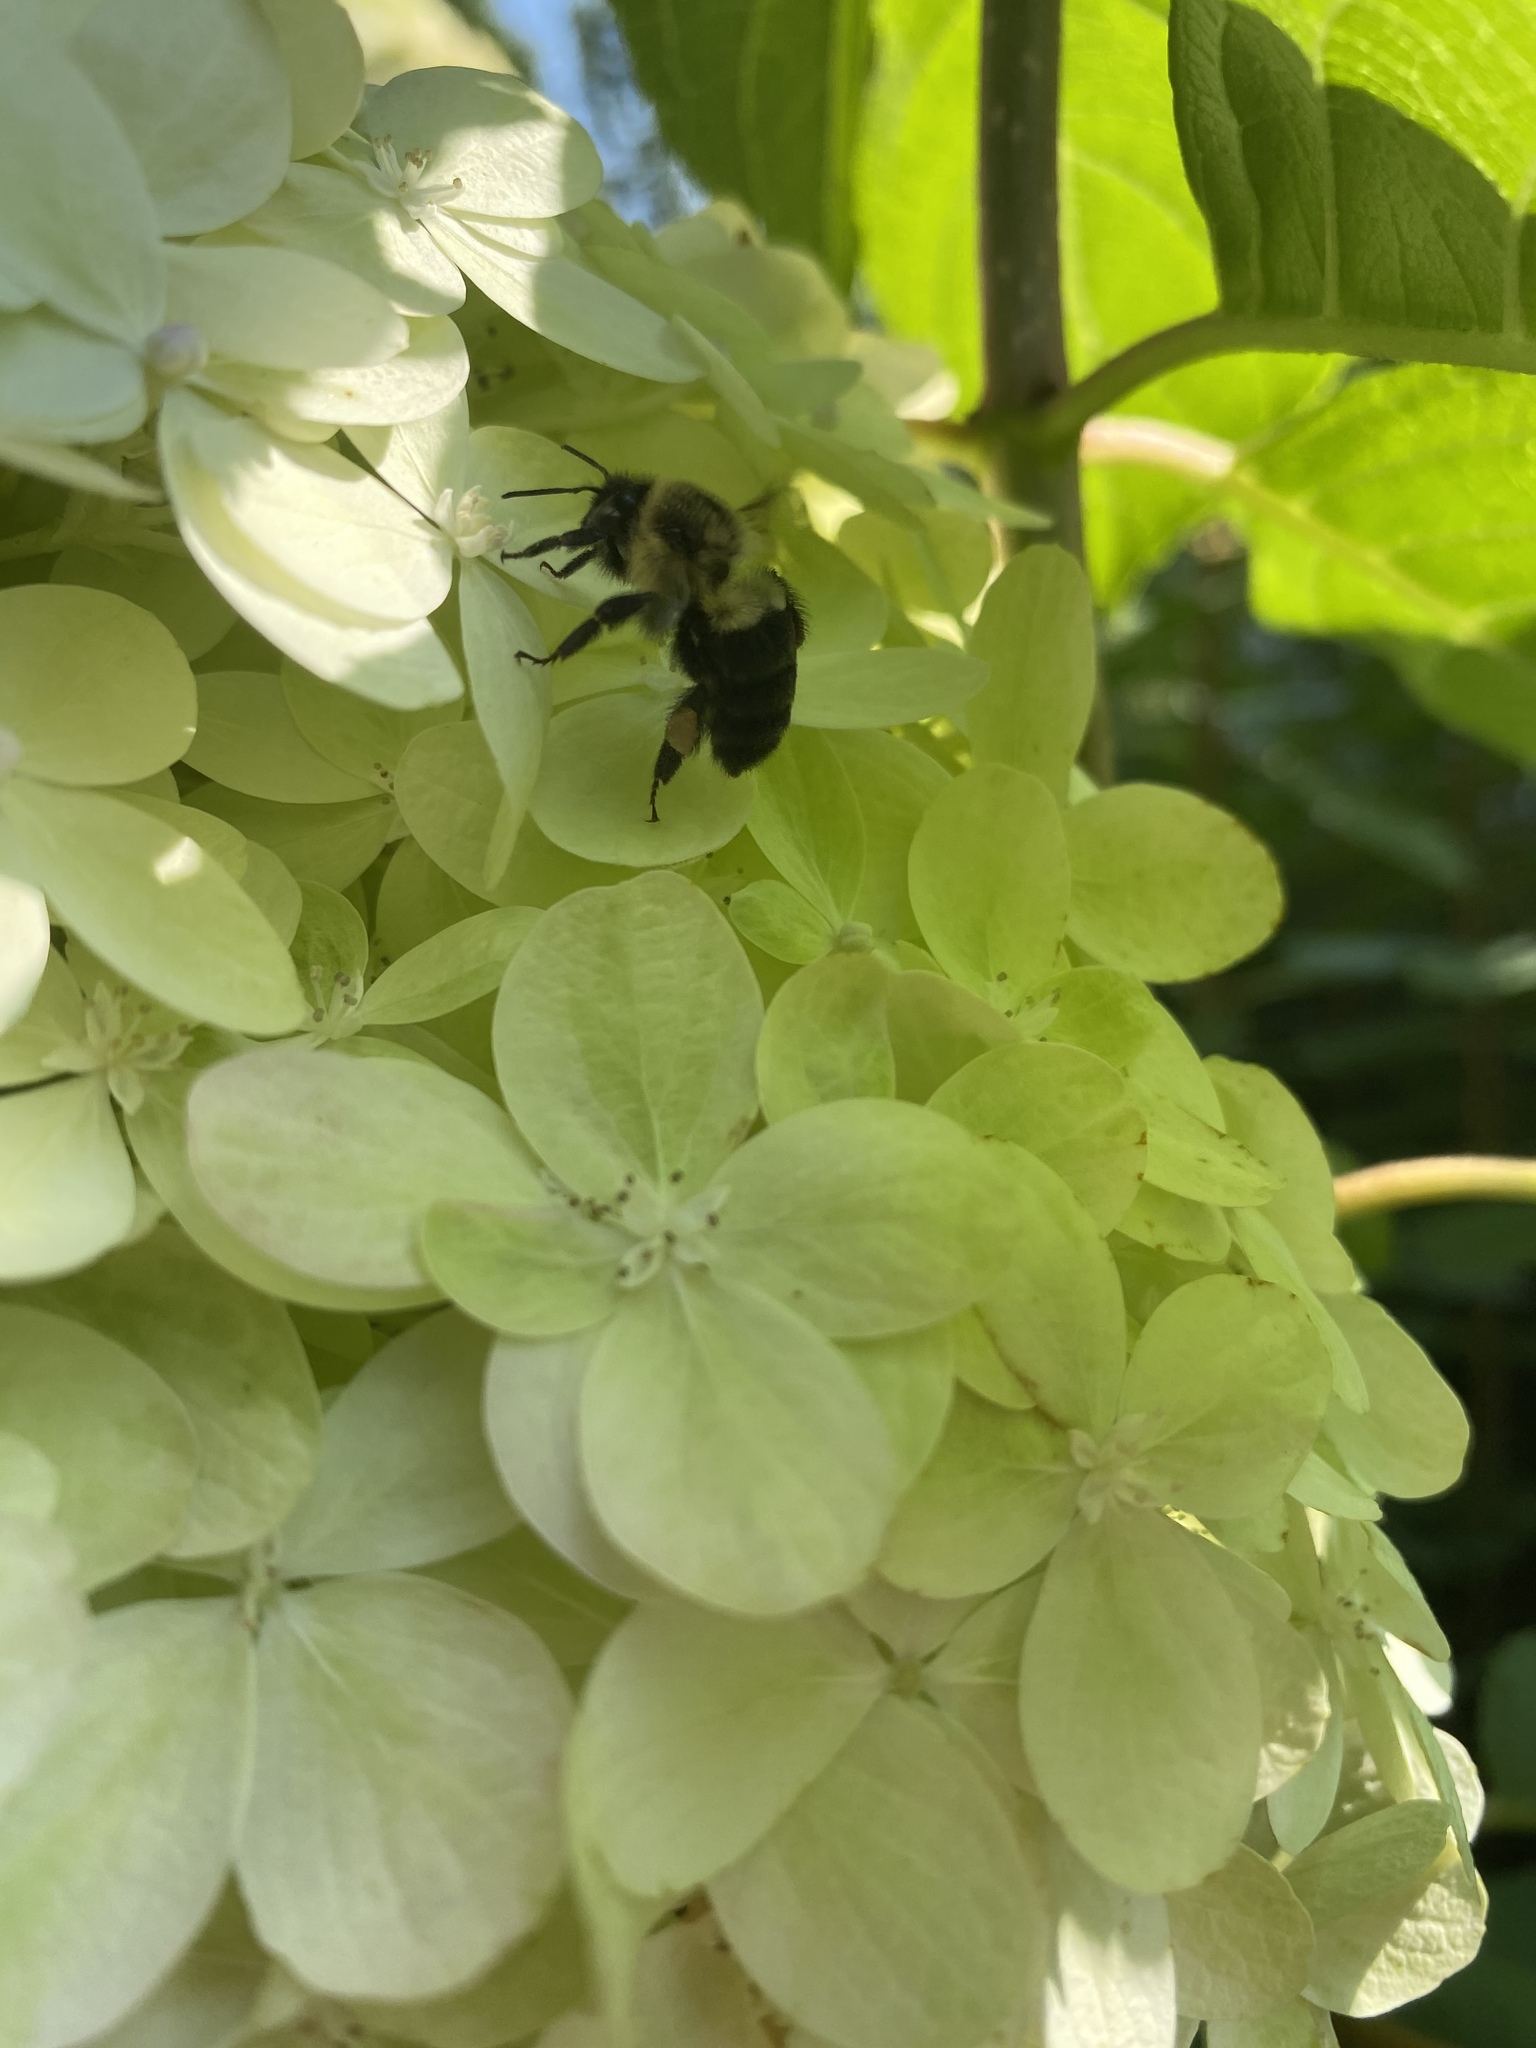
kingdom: Animalia
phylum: Arthropoda
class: Insecta
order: Hymenoptera
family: Apidae
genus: Bombus
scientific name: Bombus impatiens
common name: Common eastern bumble bee
